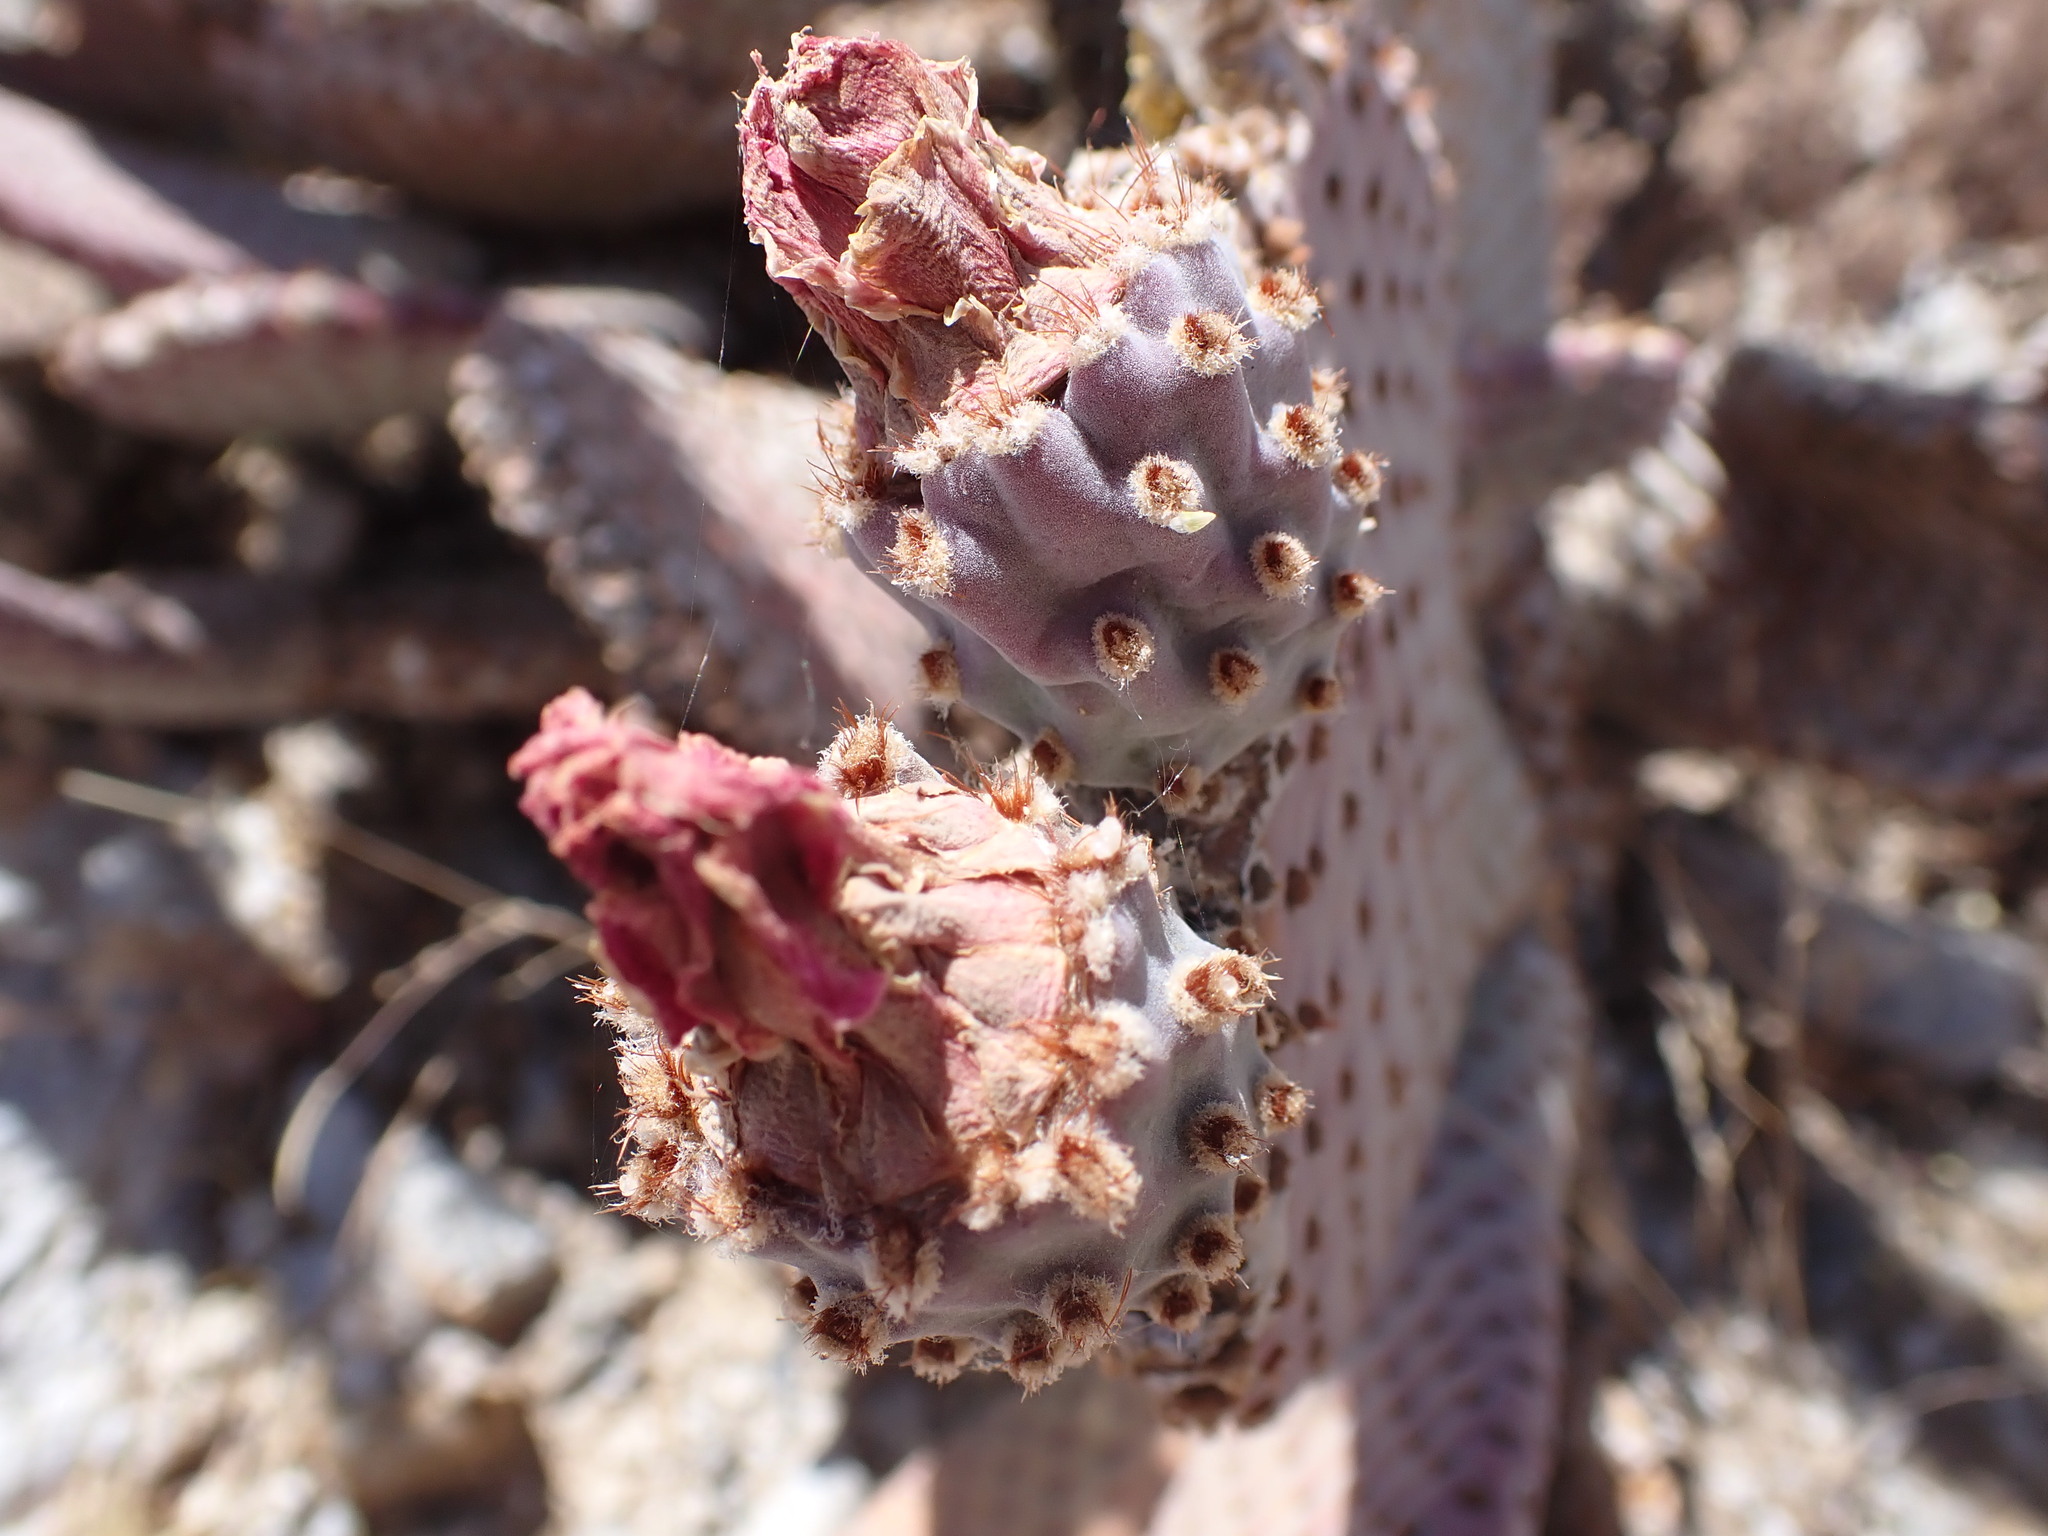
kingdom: Plantae
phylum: Tracheophyta
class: Magnoliopsida
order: Caryophyllales
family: Cactaceae
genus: Opuntia
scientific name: Opuntia basilaris
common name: Beavertail prickly-pear
